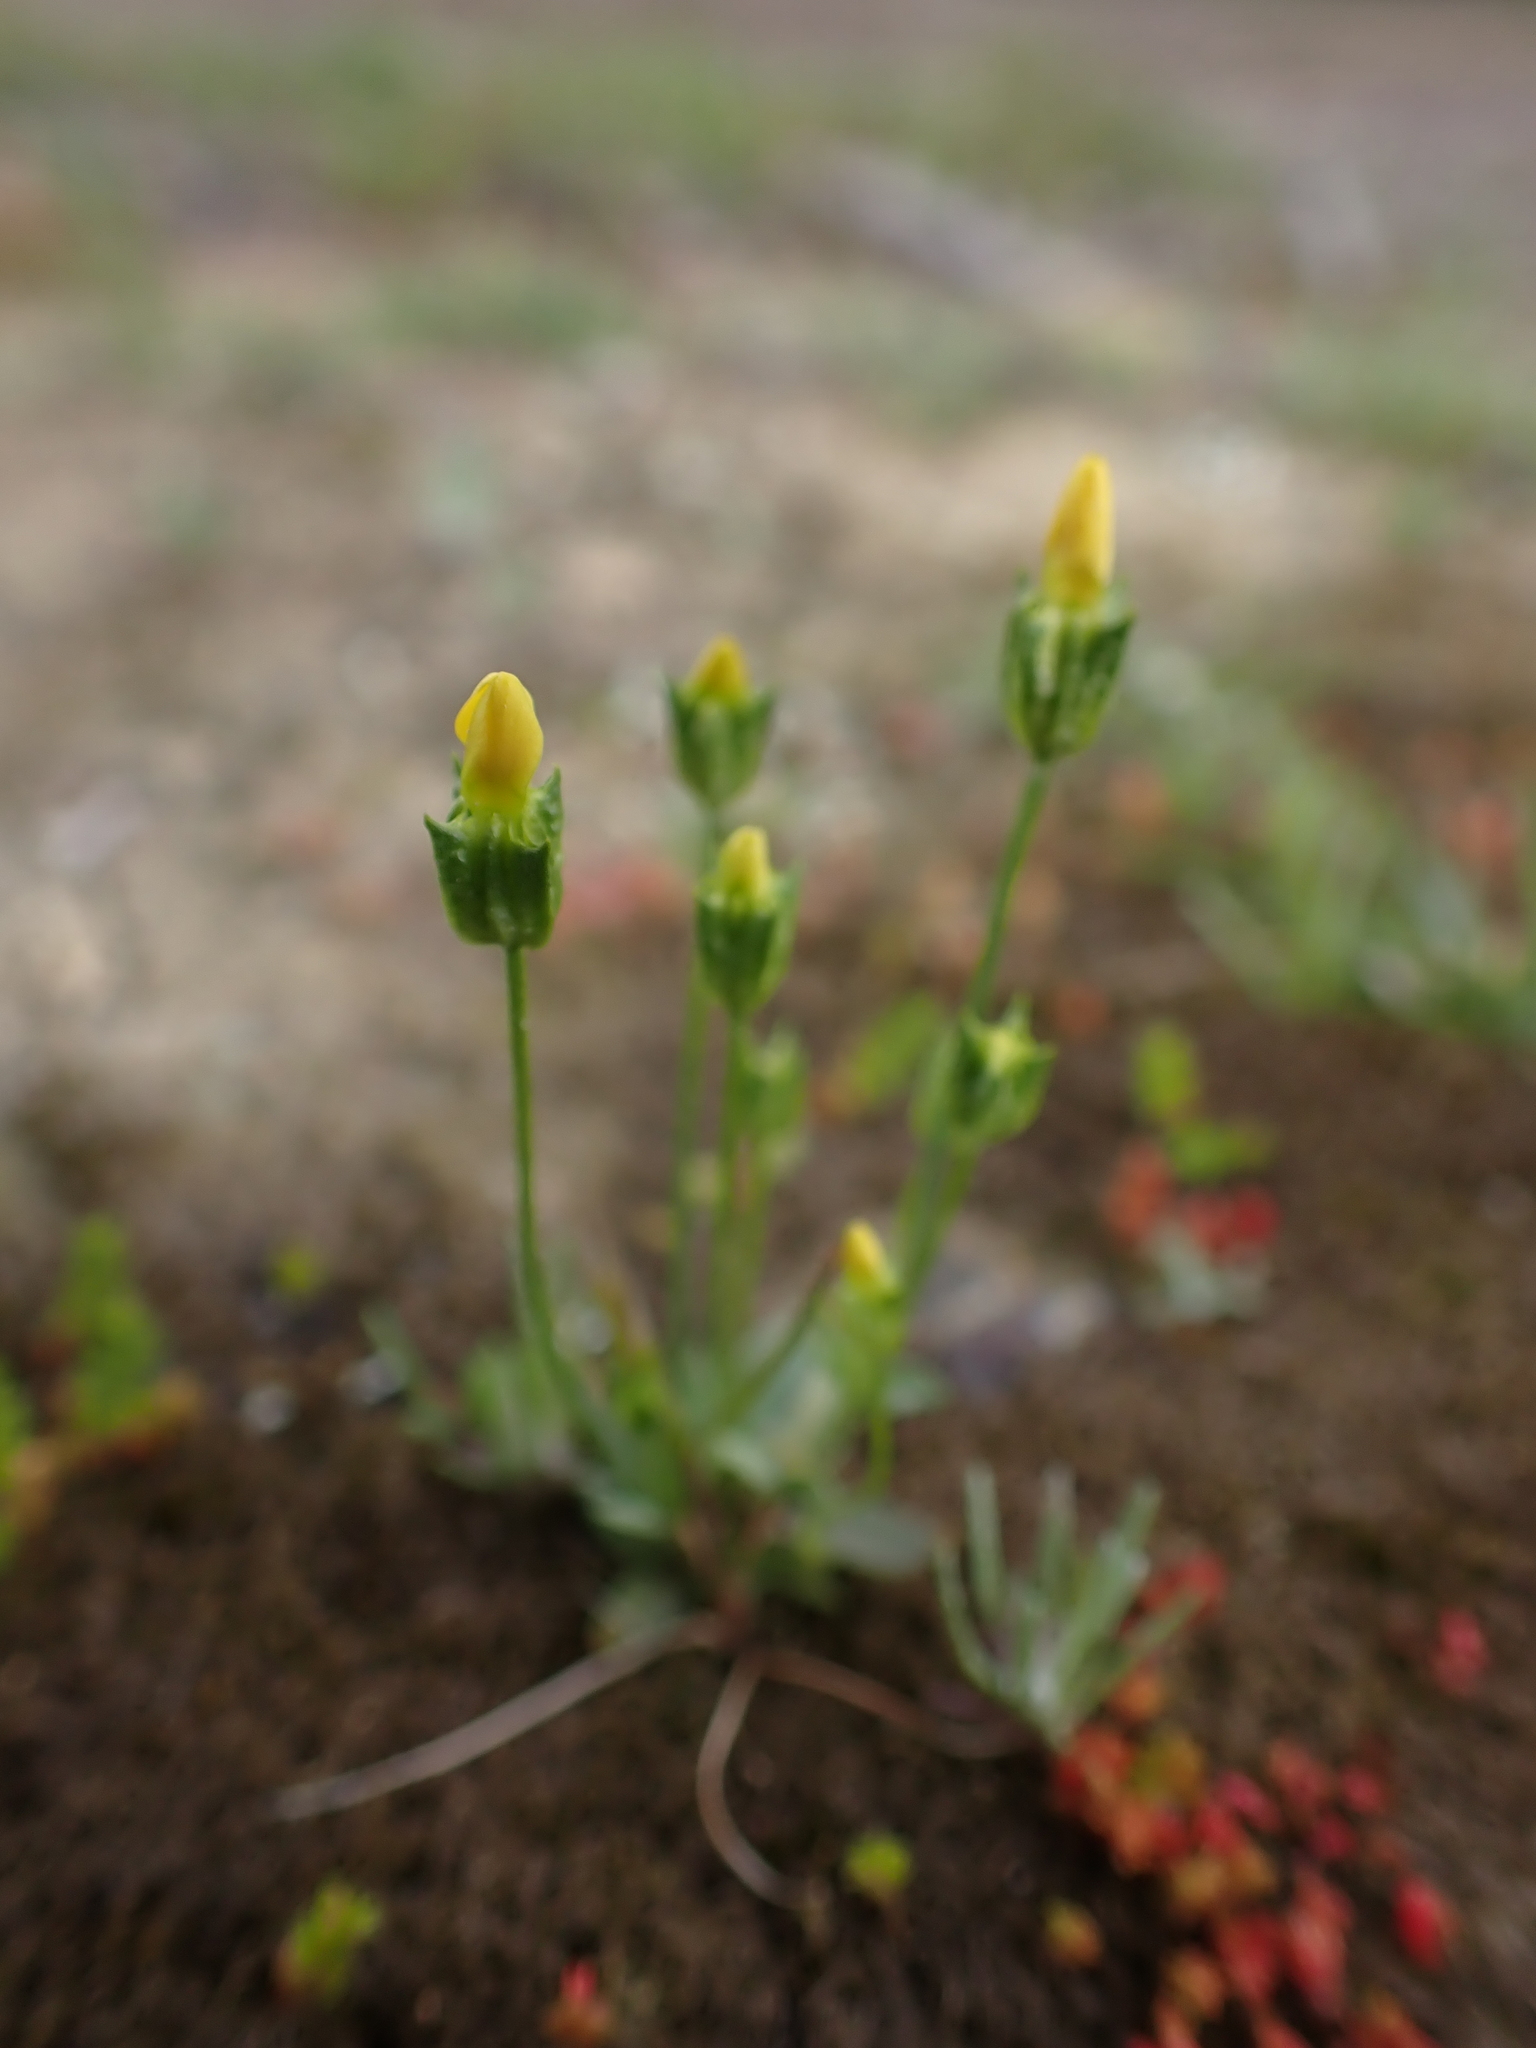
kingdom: Plantae
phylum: Tracheophyta
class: Magnoliopsida
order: Gentianales
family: Gentianaceae
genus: Microcala
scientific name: Microcala quadrangularis
